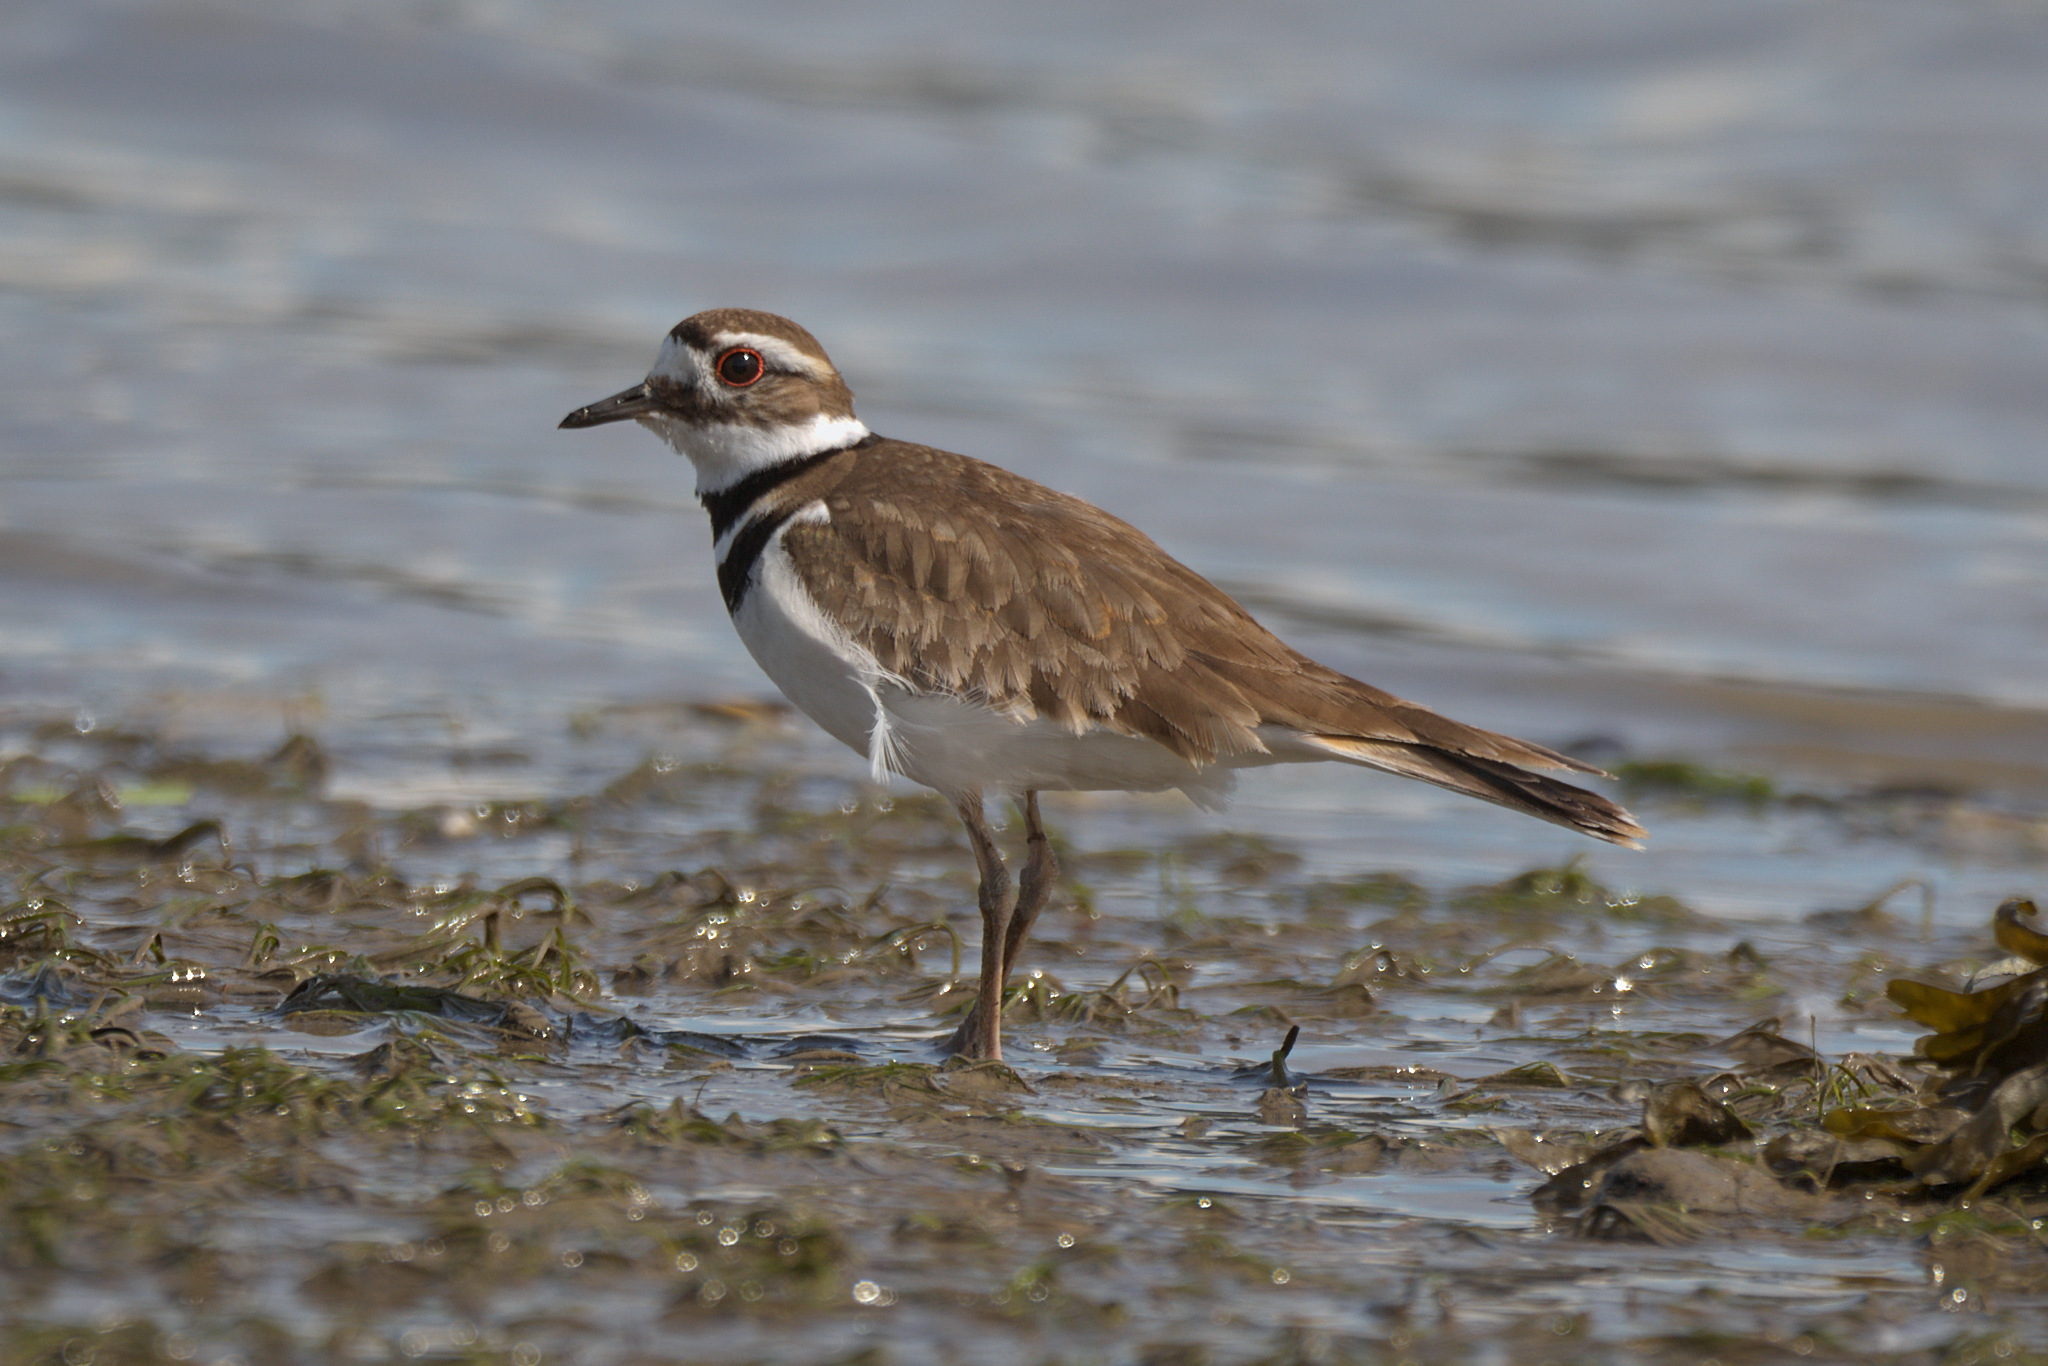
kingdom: Animalia
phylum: Chordata
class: Aves
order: Charadriiformes
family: Charadriidae
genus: Charadrius
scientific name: Charadrius vociferus
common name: Killdeer
